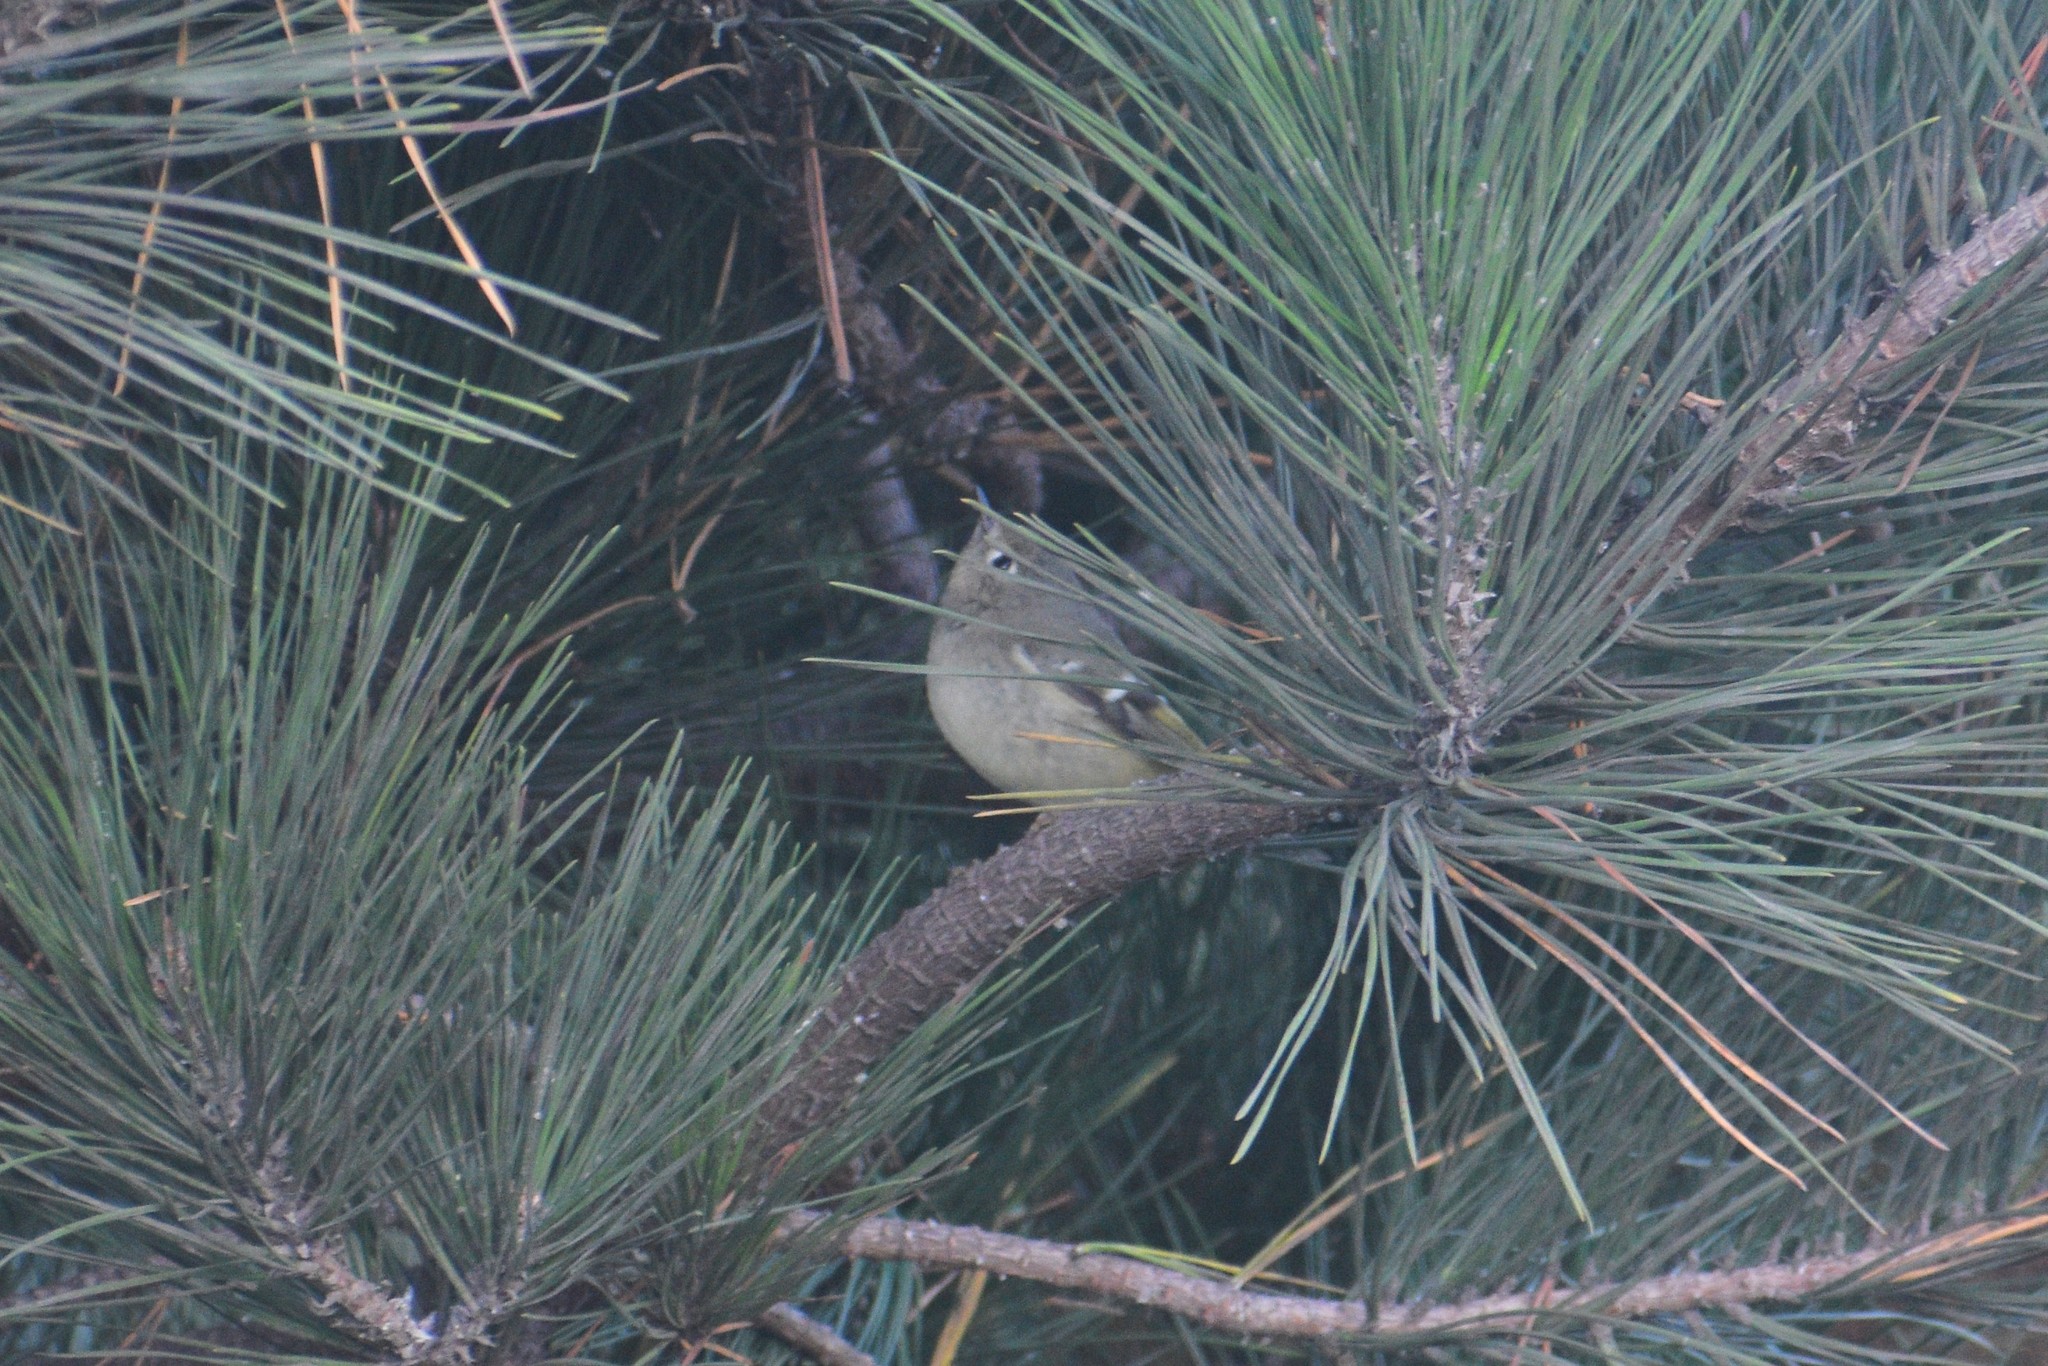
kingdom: Animalia
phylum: Chordata
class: Aves
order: Passeriformes
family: Regulidae
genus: Regulus
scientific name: Regulus calendula
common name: Ruby-crowned kinglet
